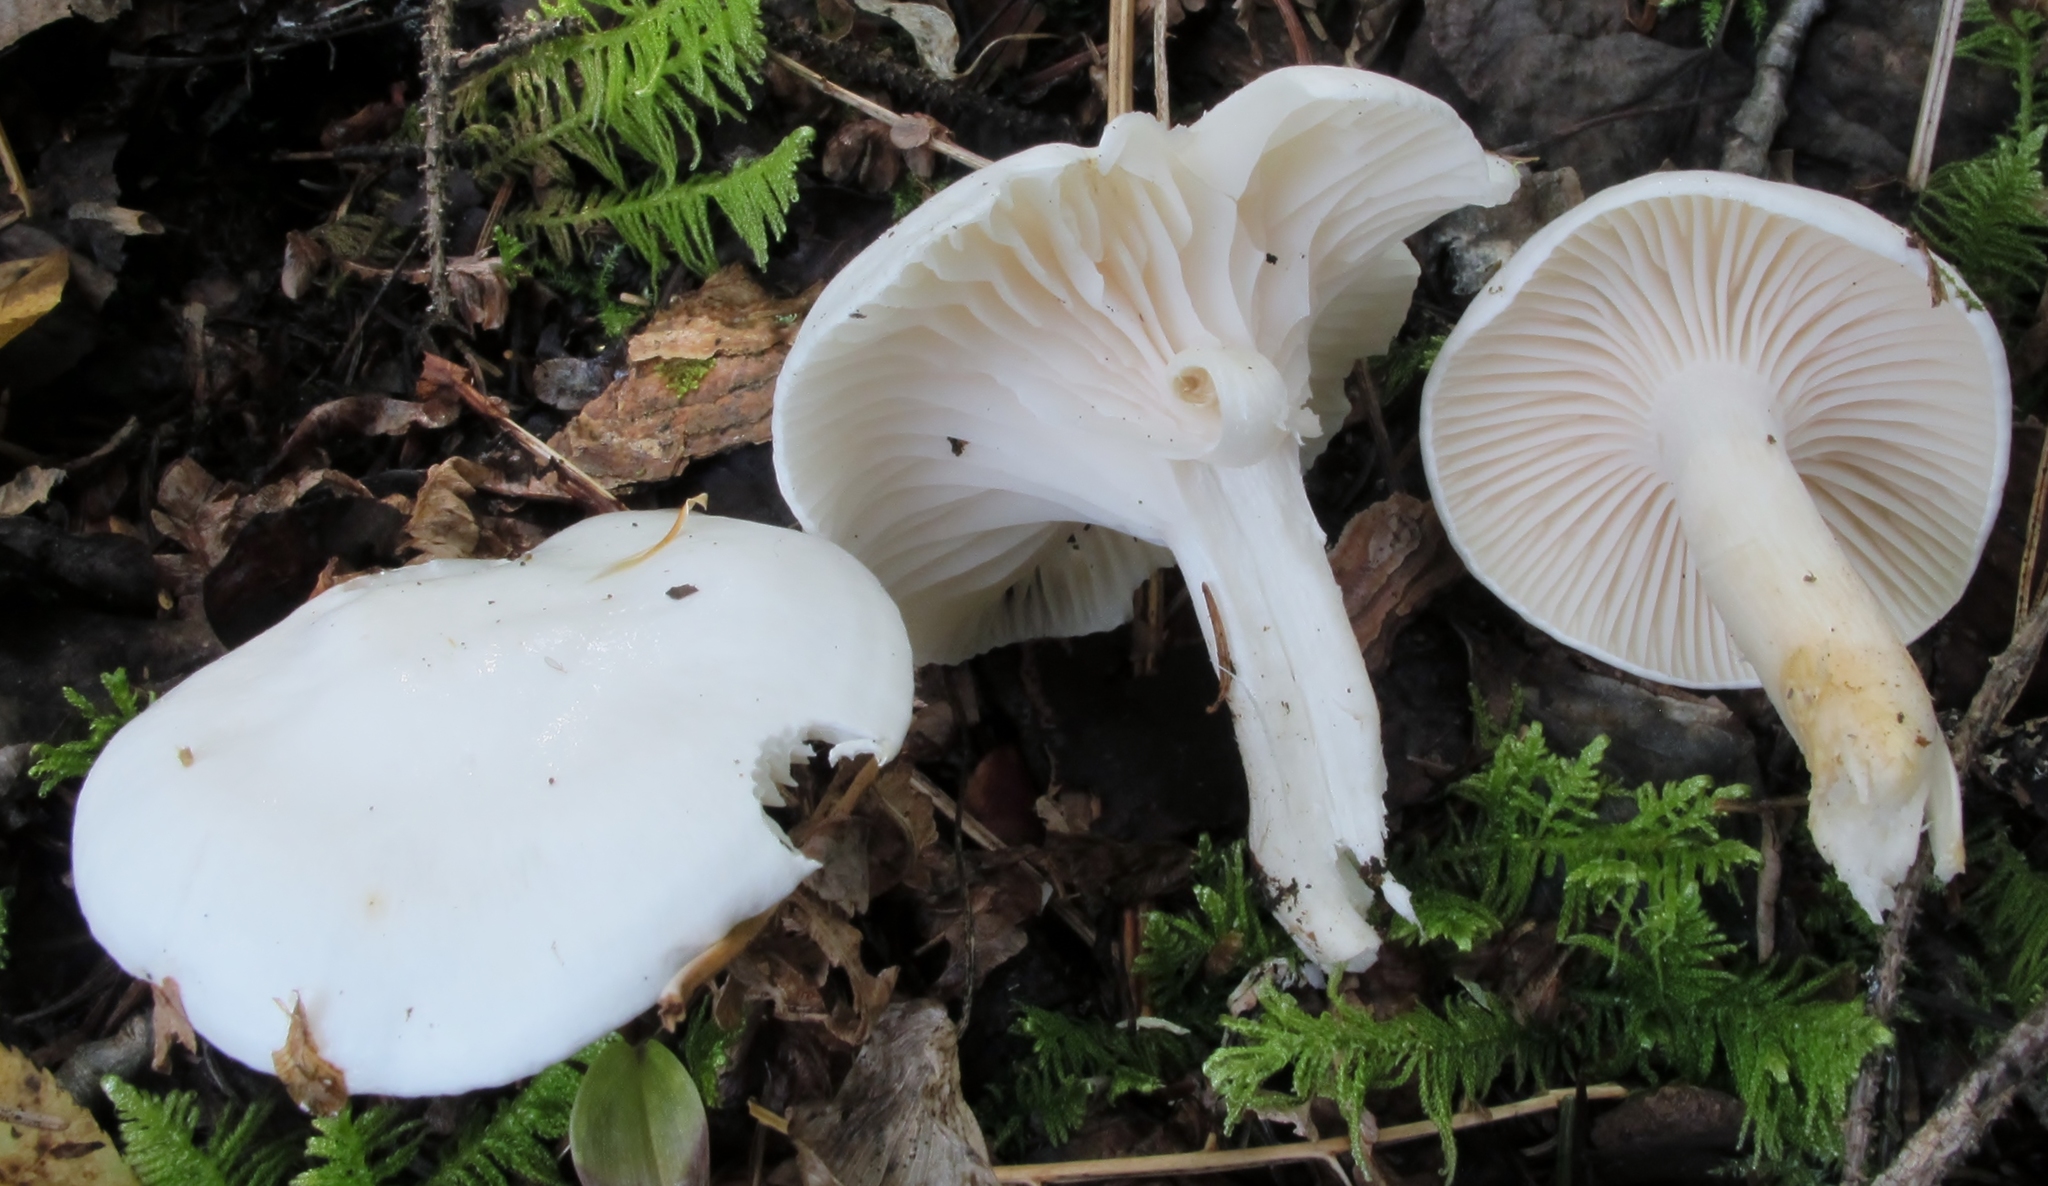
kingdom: Fungi
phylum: Basidiomycota
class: Agaricomycetes
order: Agaricales
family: Hygrophoraceae
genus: Cuphophyllus
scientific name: Cuphophyllus virgineus
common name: Snowy waxcap
